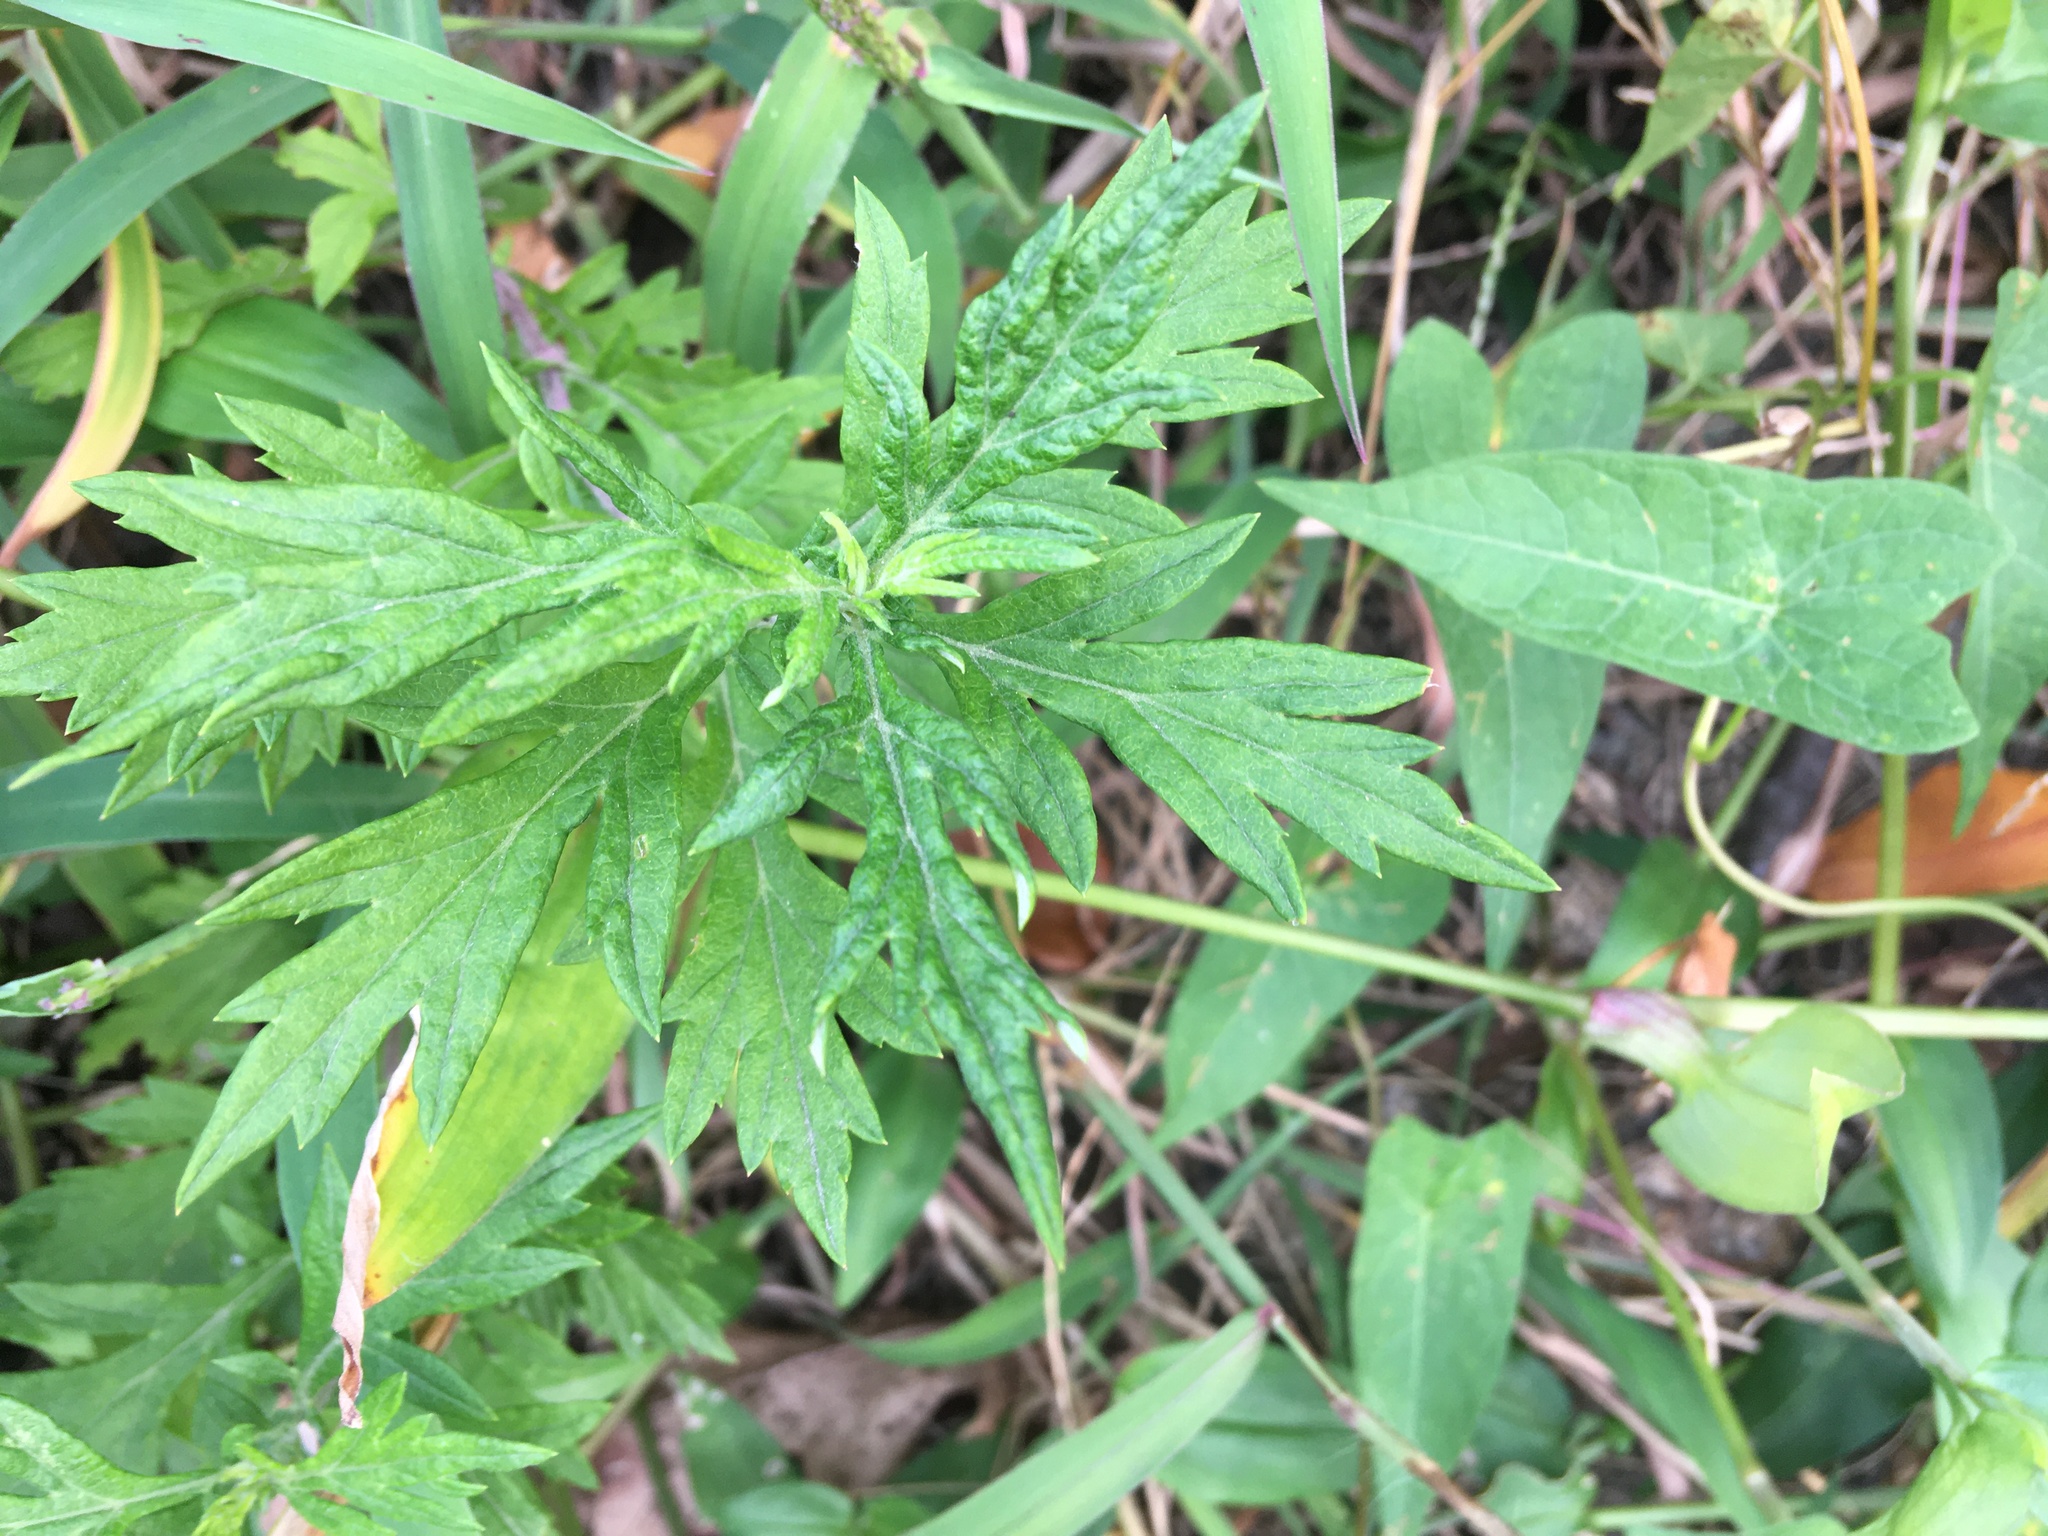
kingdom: Plantae
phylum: Tracheophyta
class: Magnoliopsida
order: Asterales
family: Asteraceae
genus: Artemisia
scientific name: Artemisia vulgaris
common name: Mugwort
